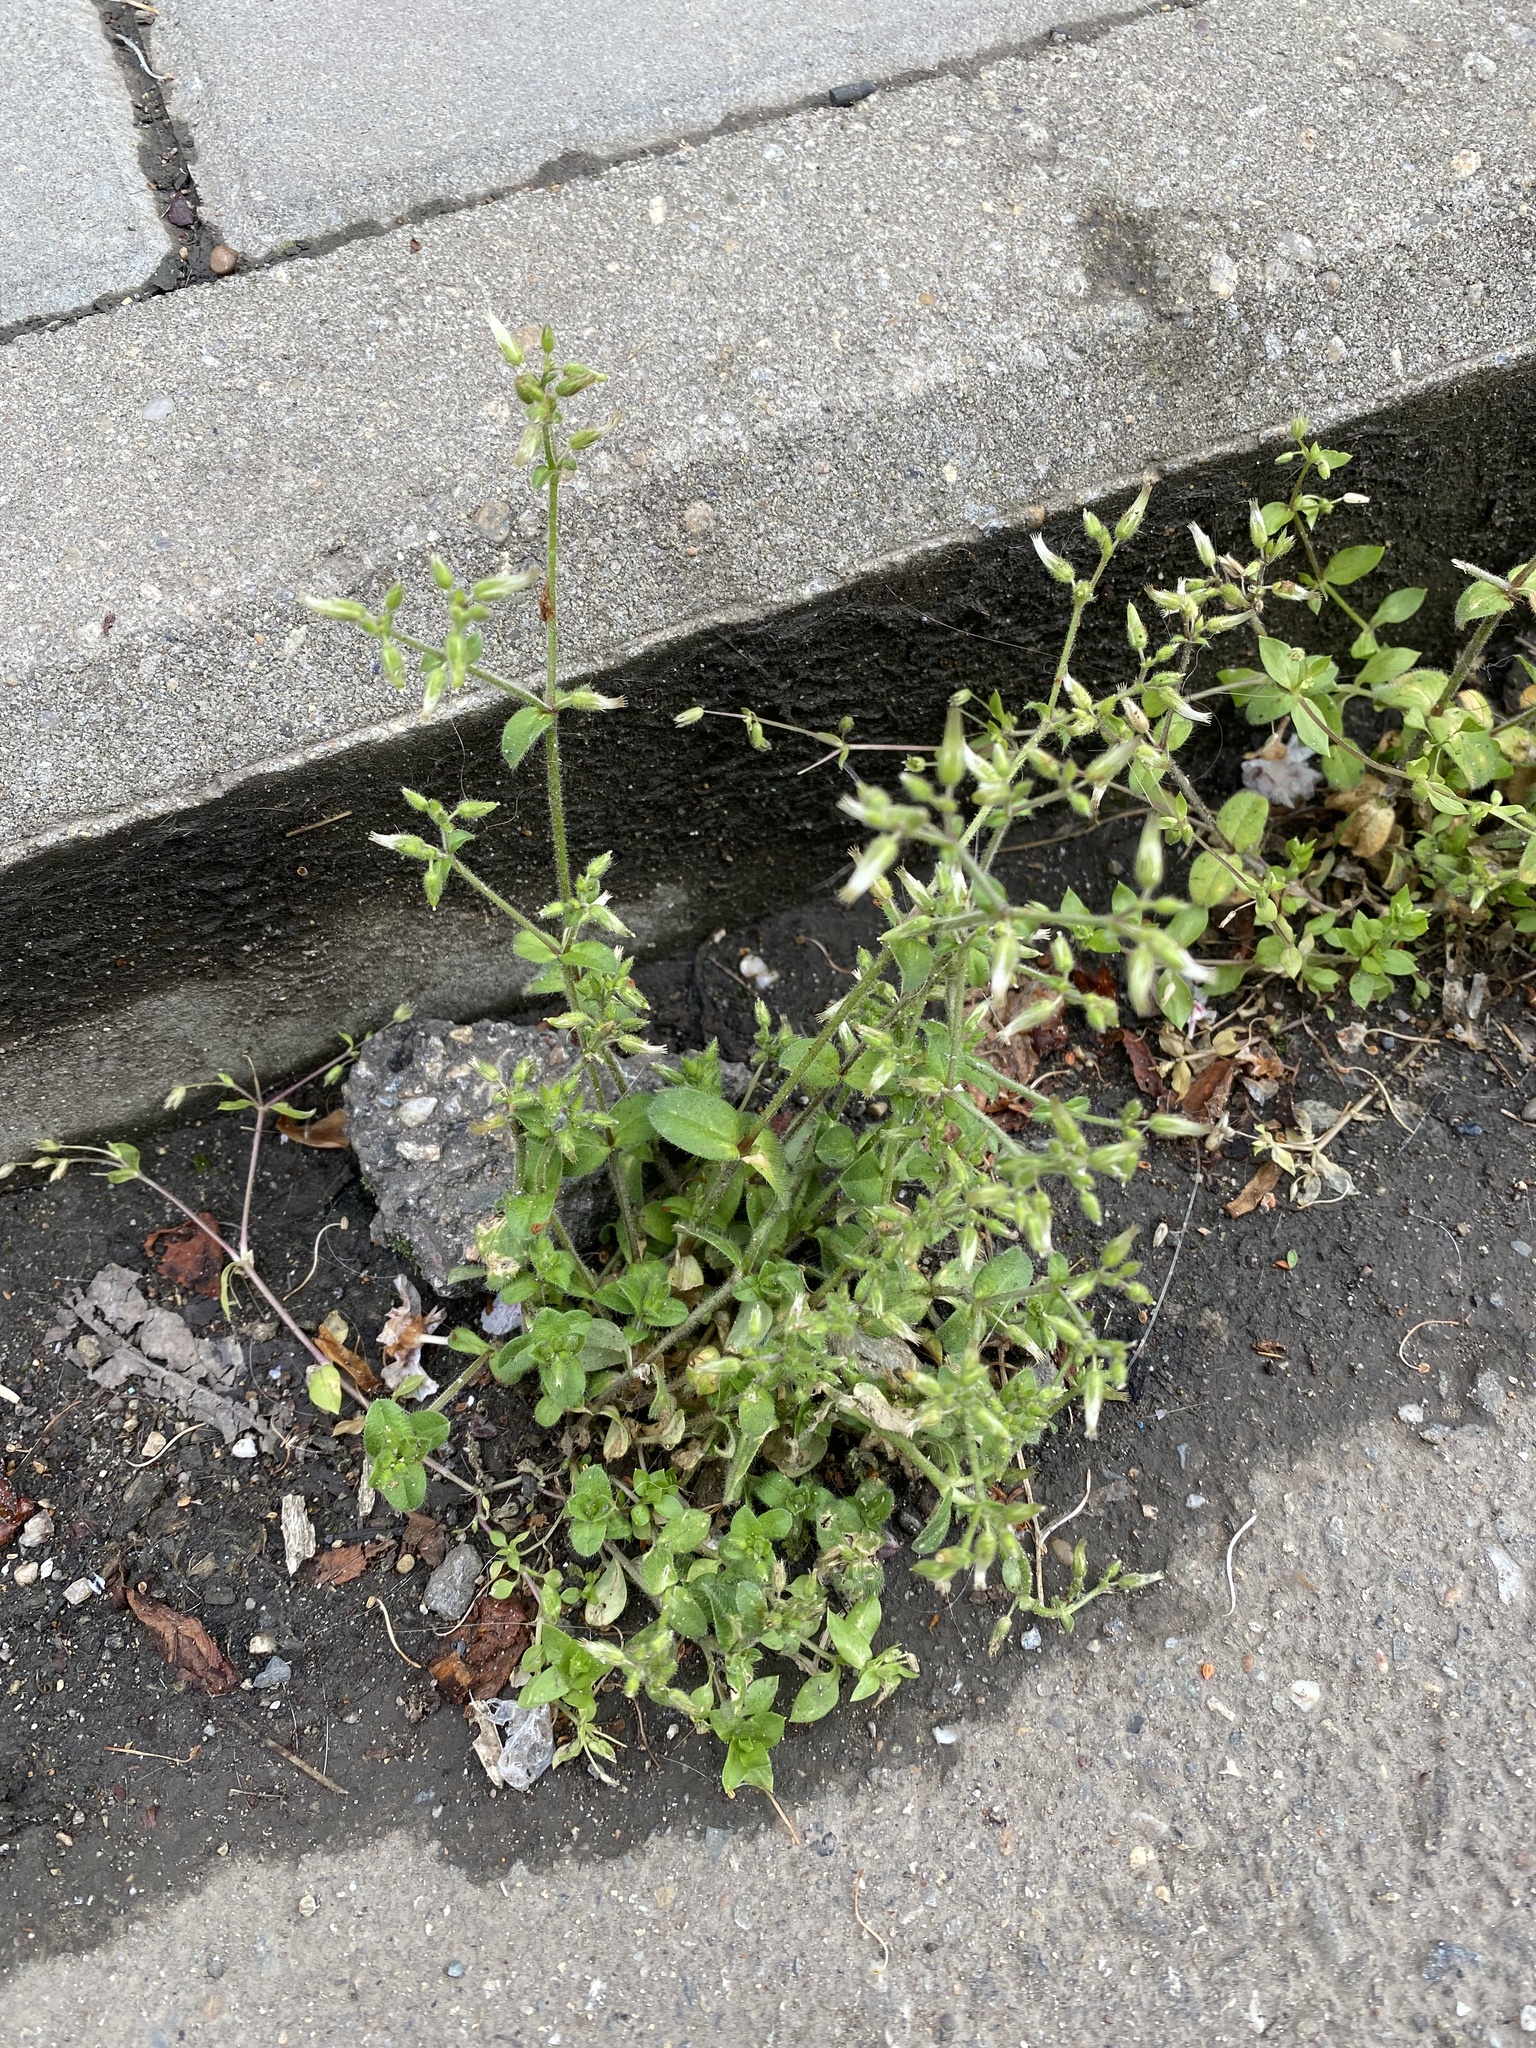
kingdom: Plantae
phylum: Tracheophyta
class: Magnoliopsida
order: Caryophyllales
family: Caryophyllaceae
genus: Cerastium
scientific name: Cerastium glomeratum
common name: Sticky chickweed
